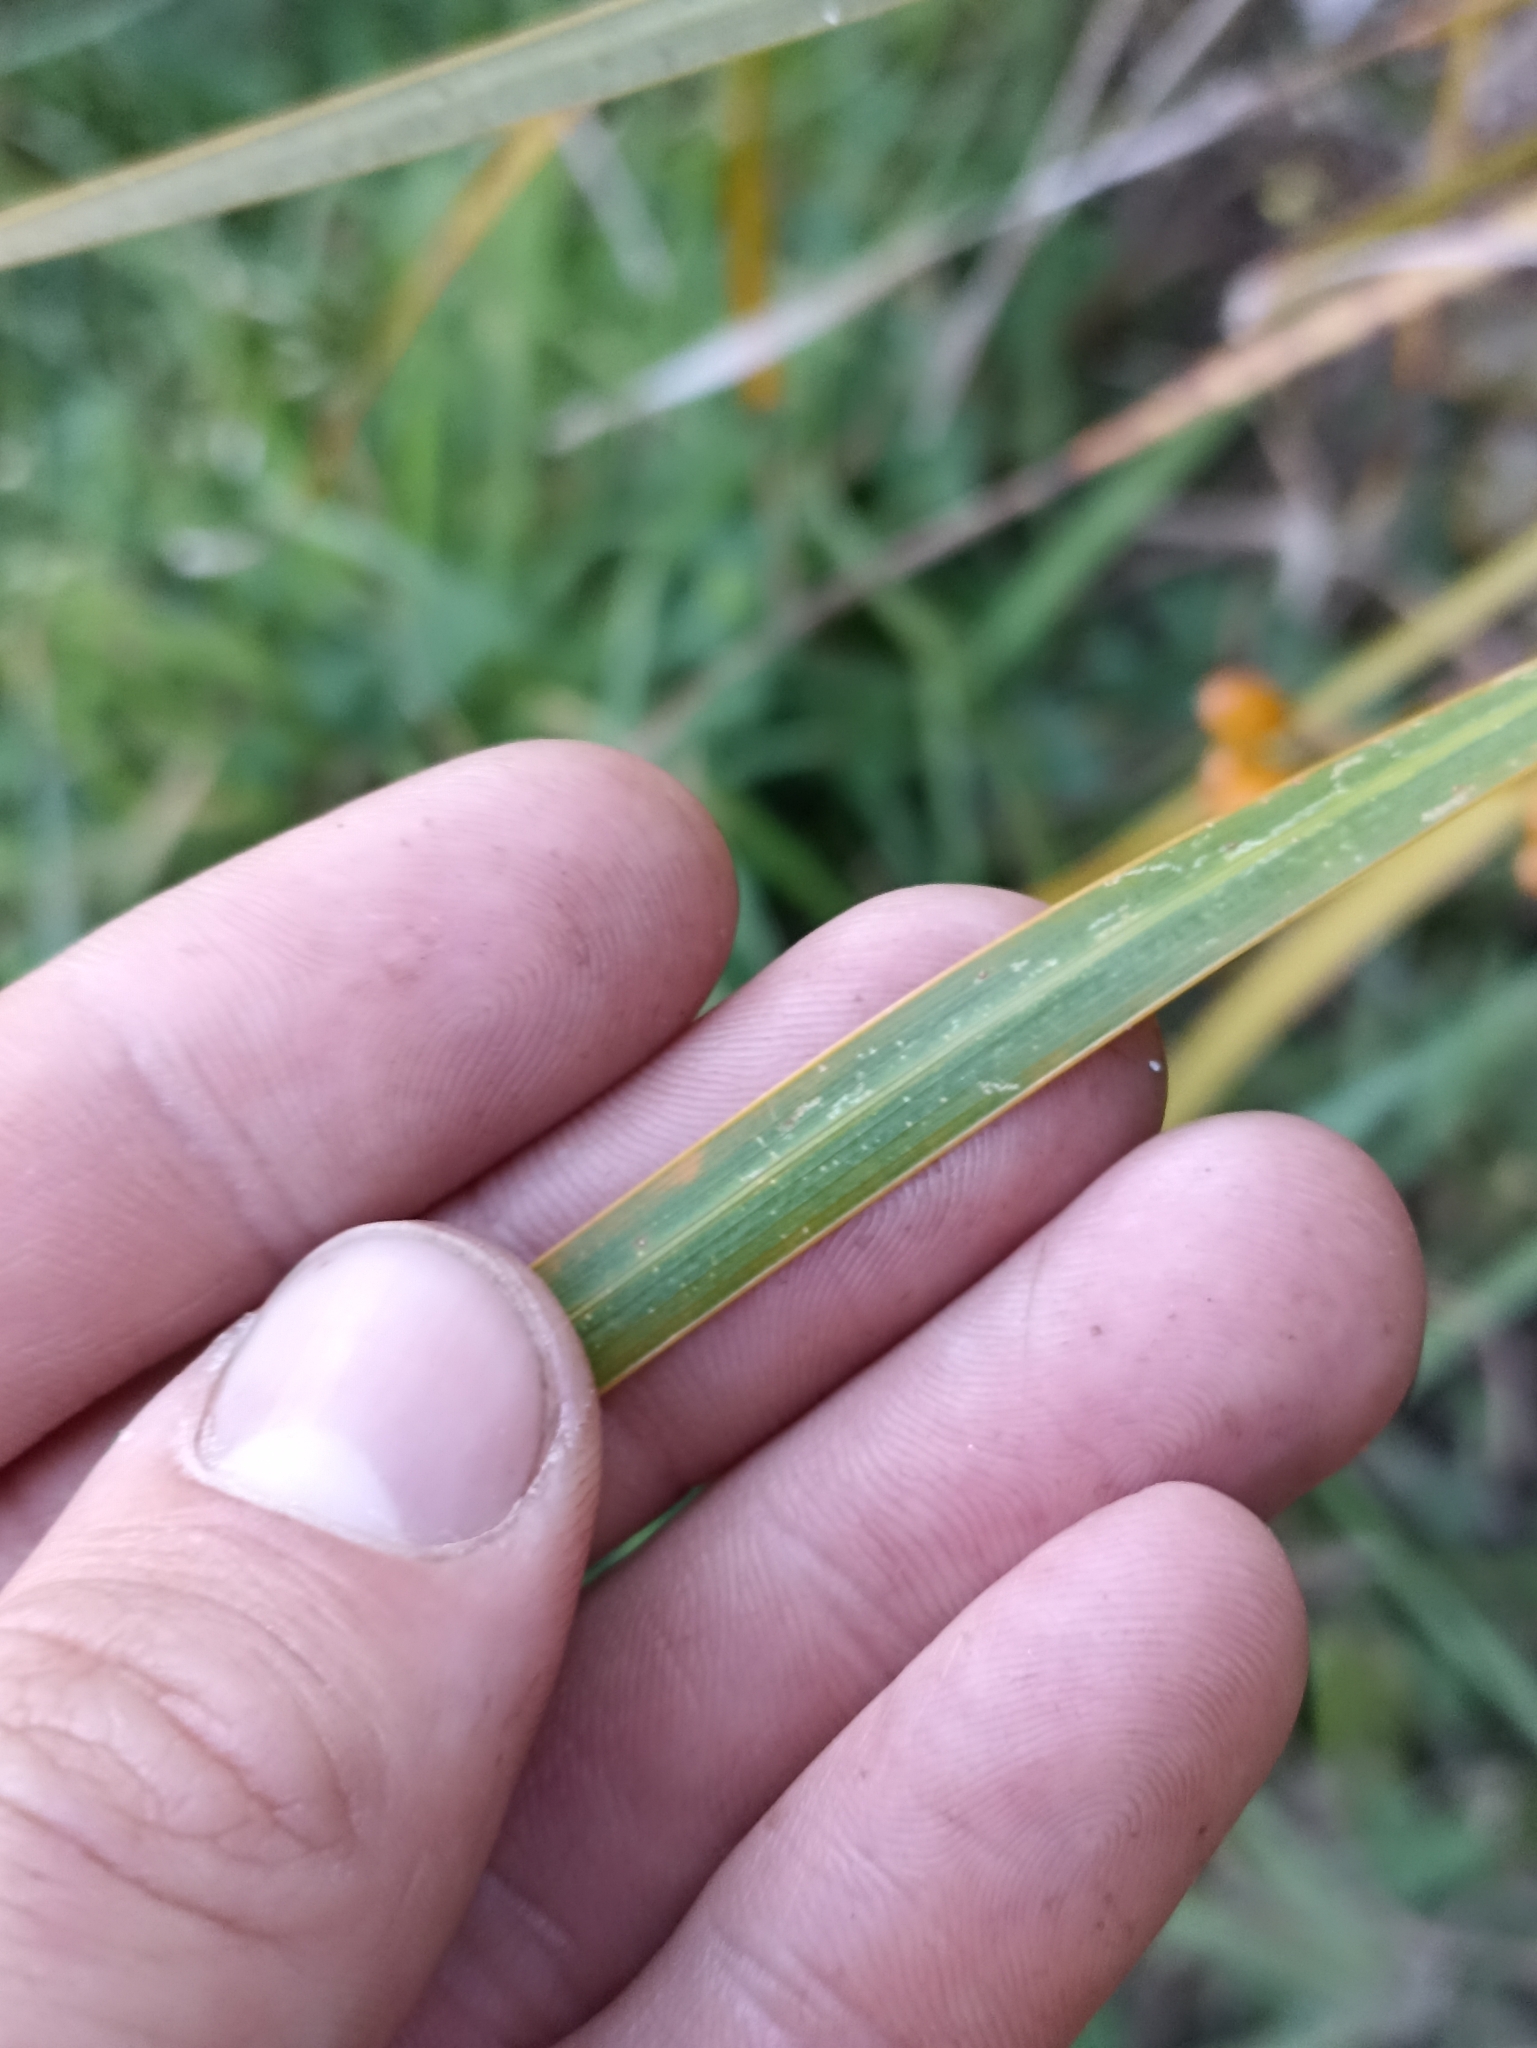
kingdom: Plantae
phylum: Tracheophyta
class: Liliopsida
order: Asparagales
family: Iridaceae
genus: Libertia
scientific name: Libertia ixioides
